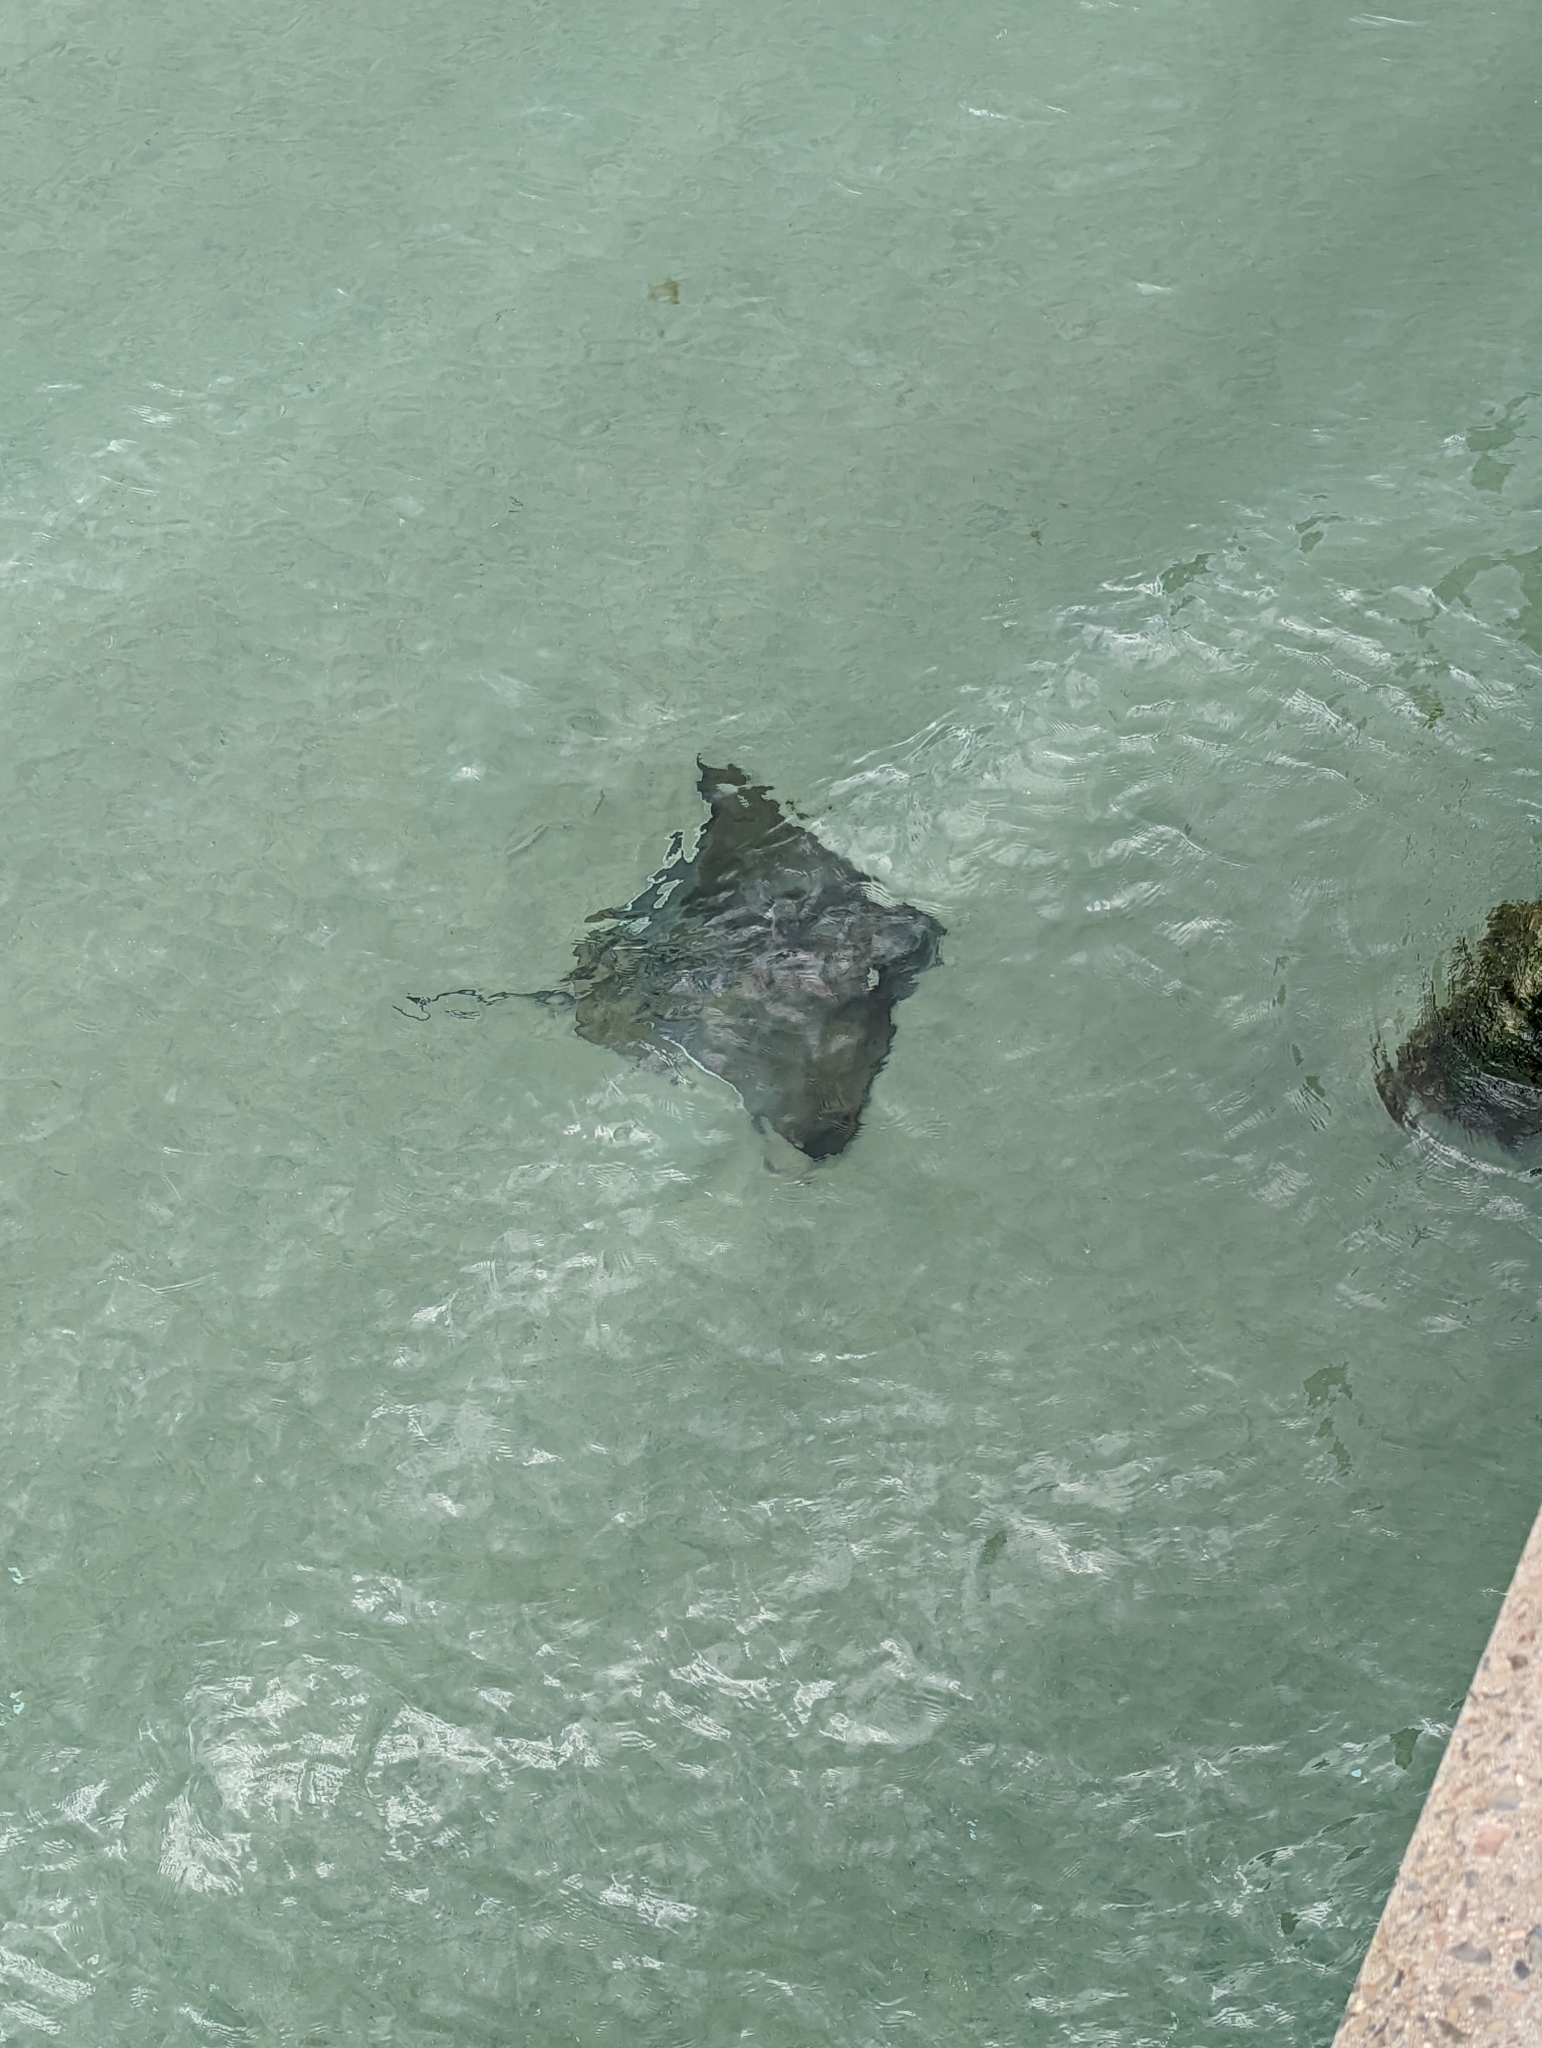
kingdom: Animalia
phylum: Chordata
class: Elasmobranchii
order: Myliobatiformes
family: Myliobatidae
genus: Myliobatis
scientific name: Myliobatis tenuicaudatus
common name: Eagle ray
